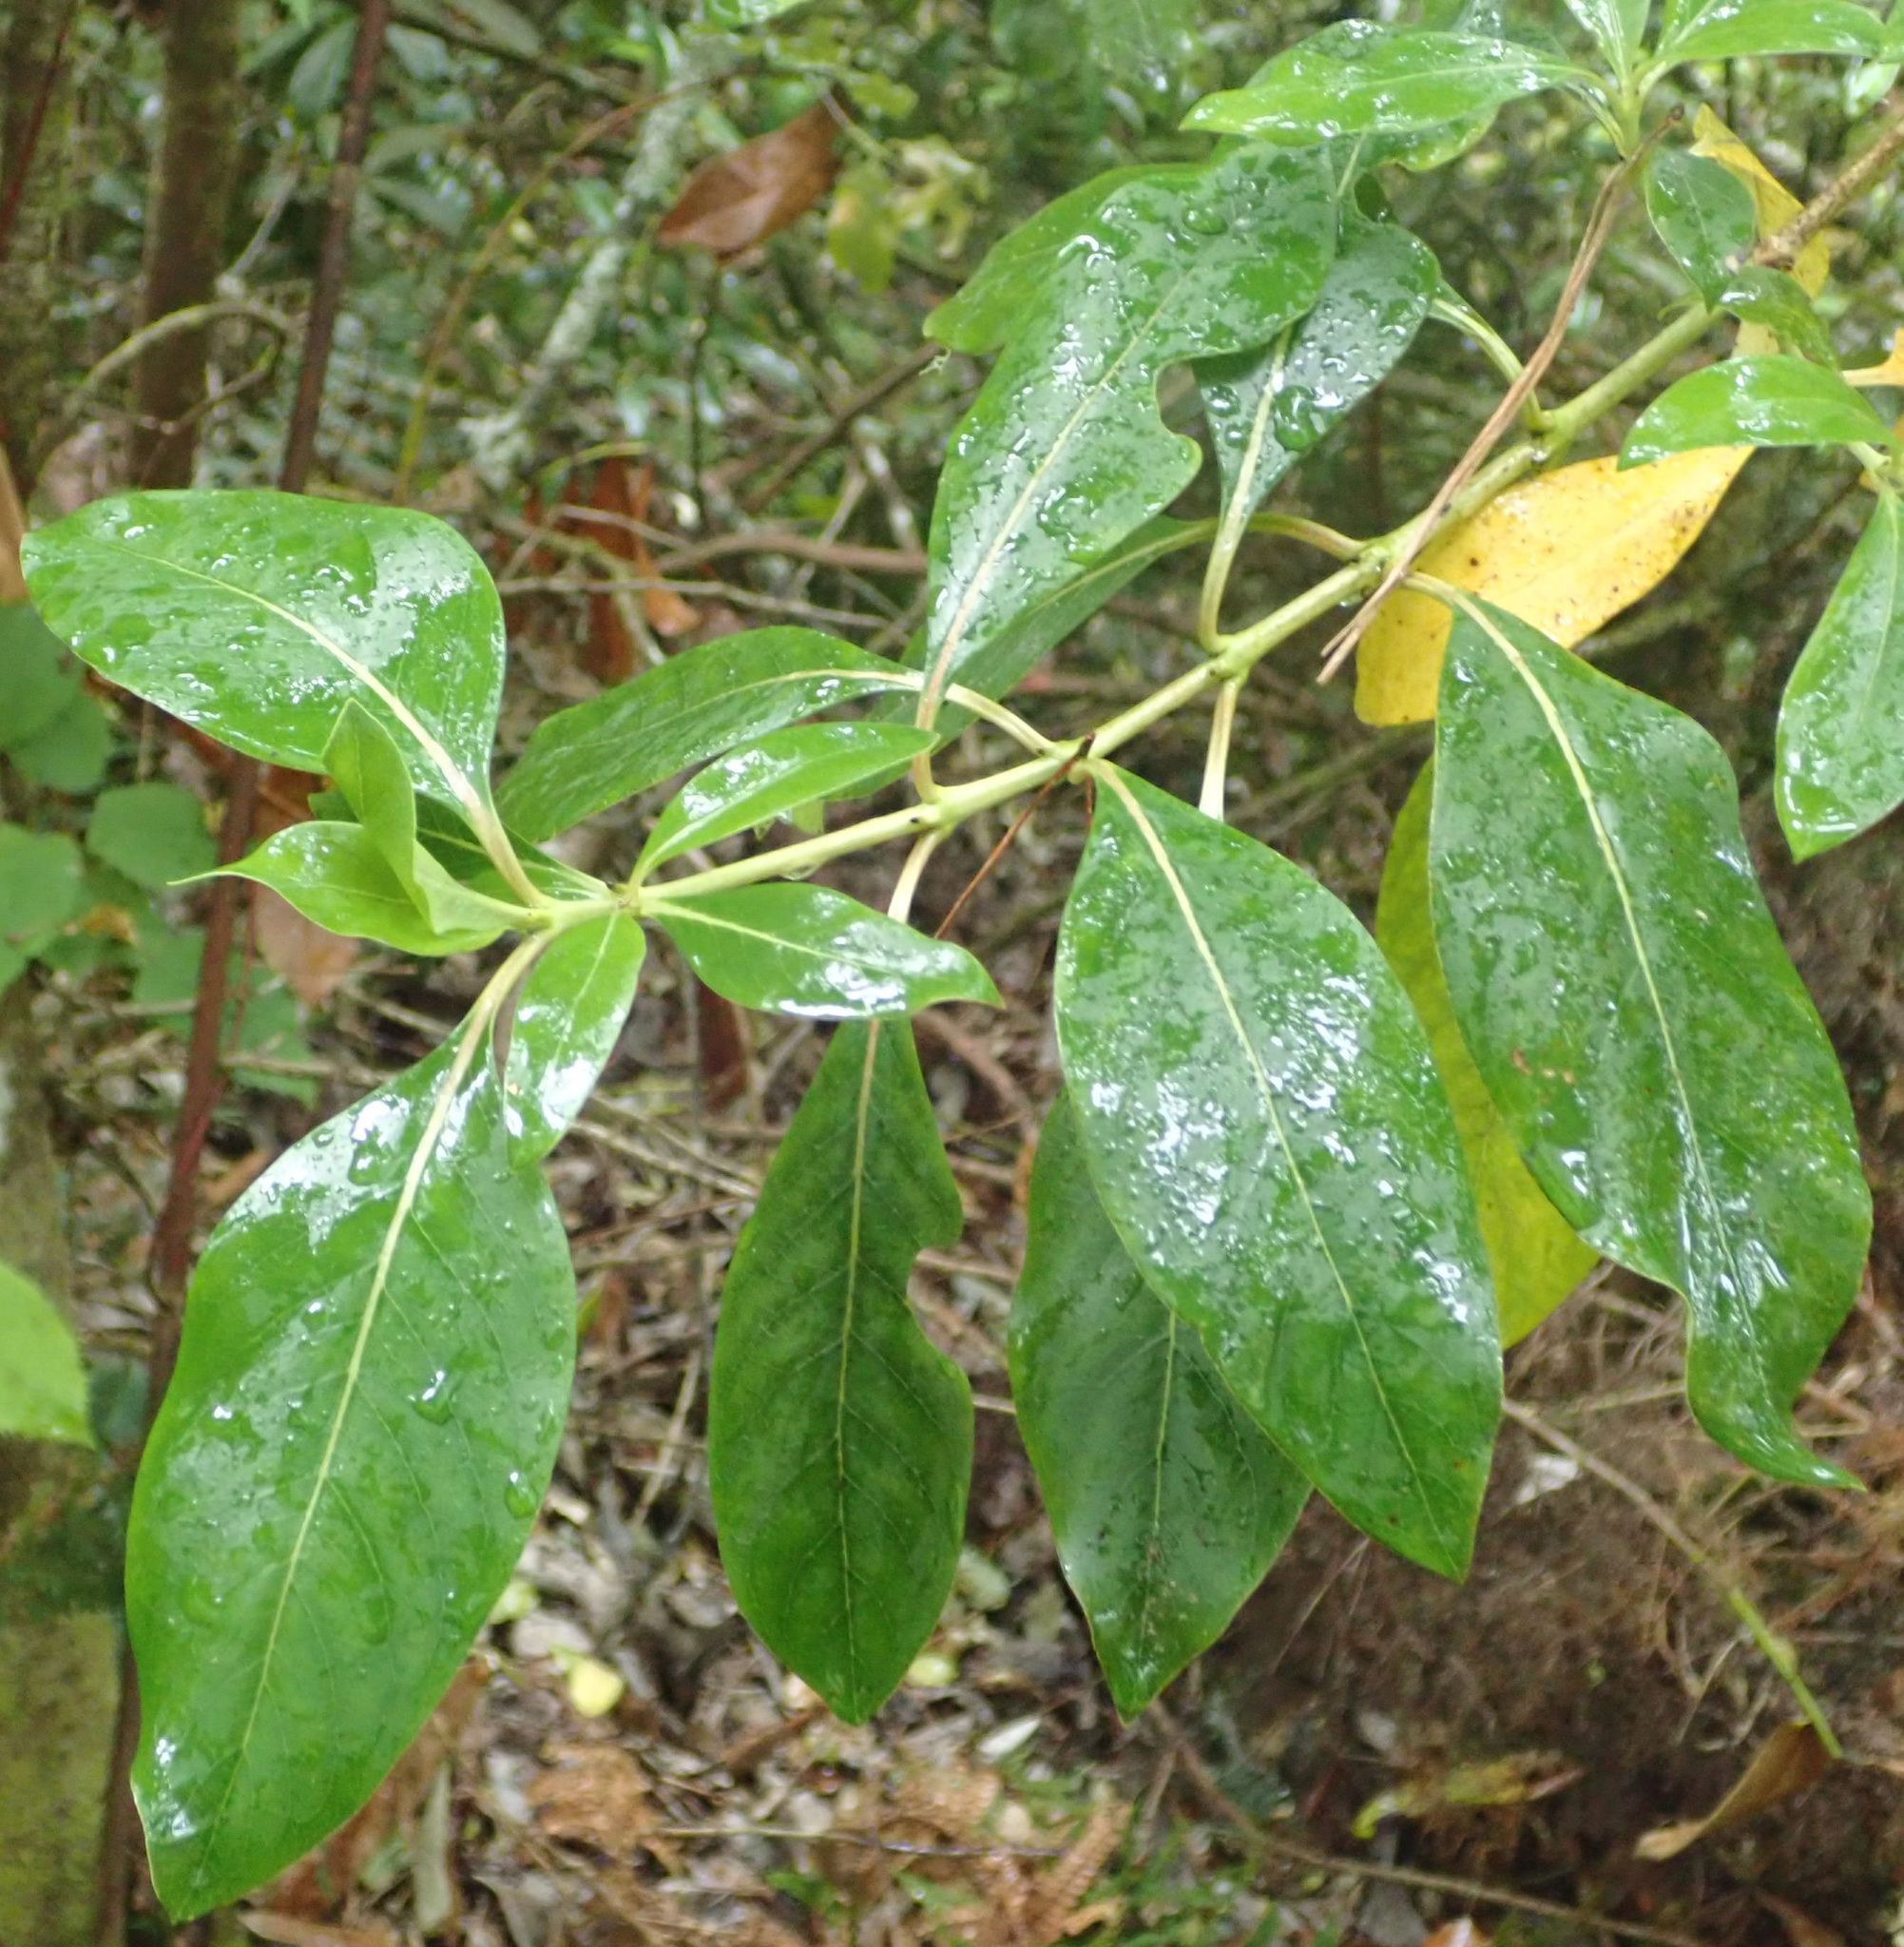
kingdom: Plantae
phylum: Tracheophyta
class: Magnoliopsida
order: Gentianales
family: Rubiaceae
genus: Coprosma
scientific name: Coprosma robusta
